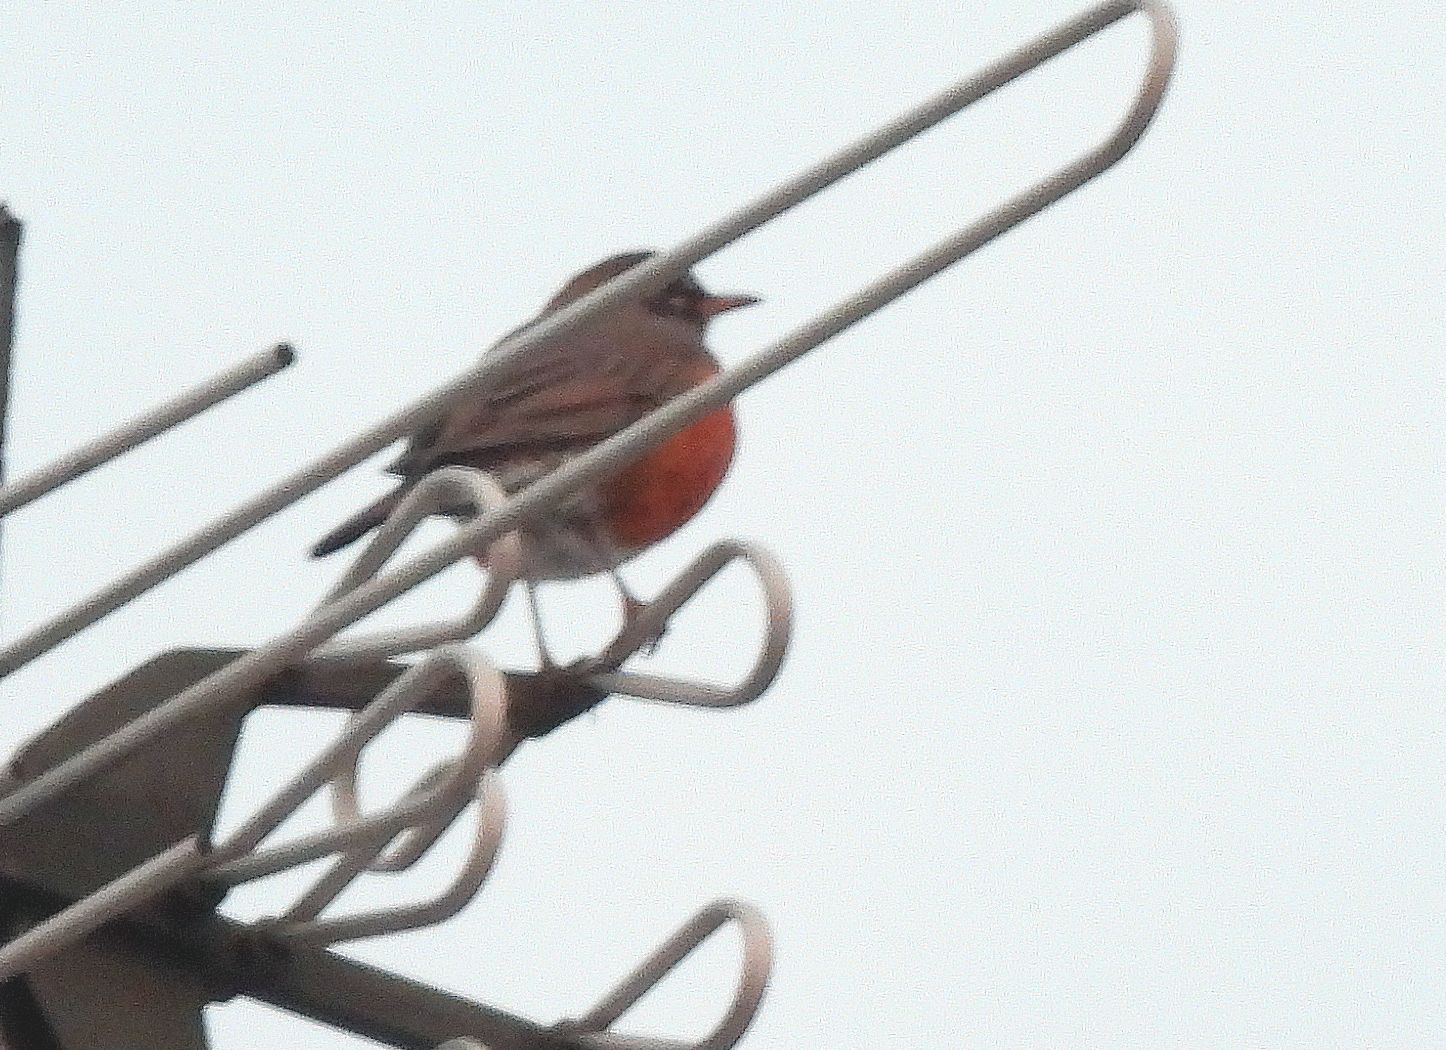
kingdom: Animalia
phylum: Chordata
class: Aves
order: Passeriformes
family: Turdidae
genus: Turdus
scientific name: Turdus migratorius
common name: American robin
